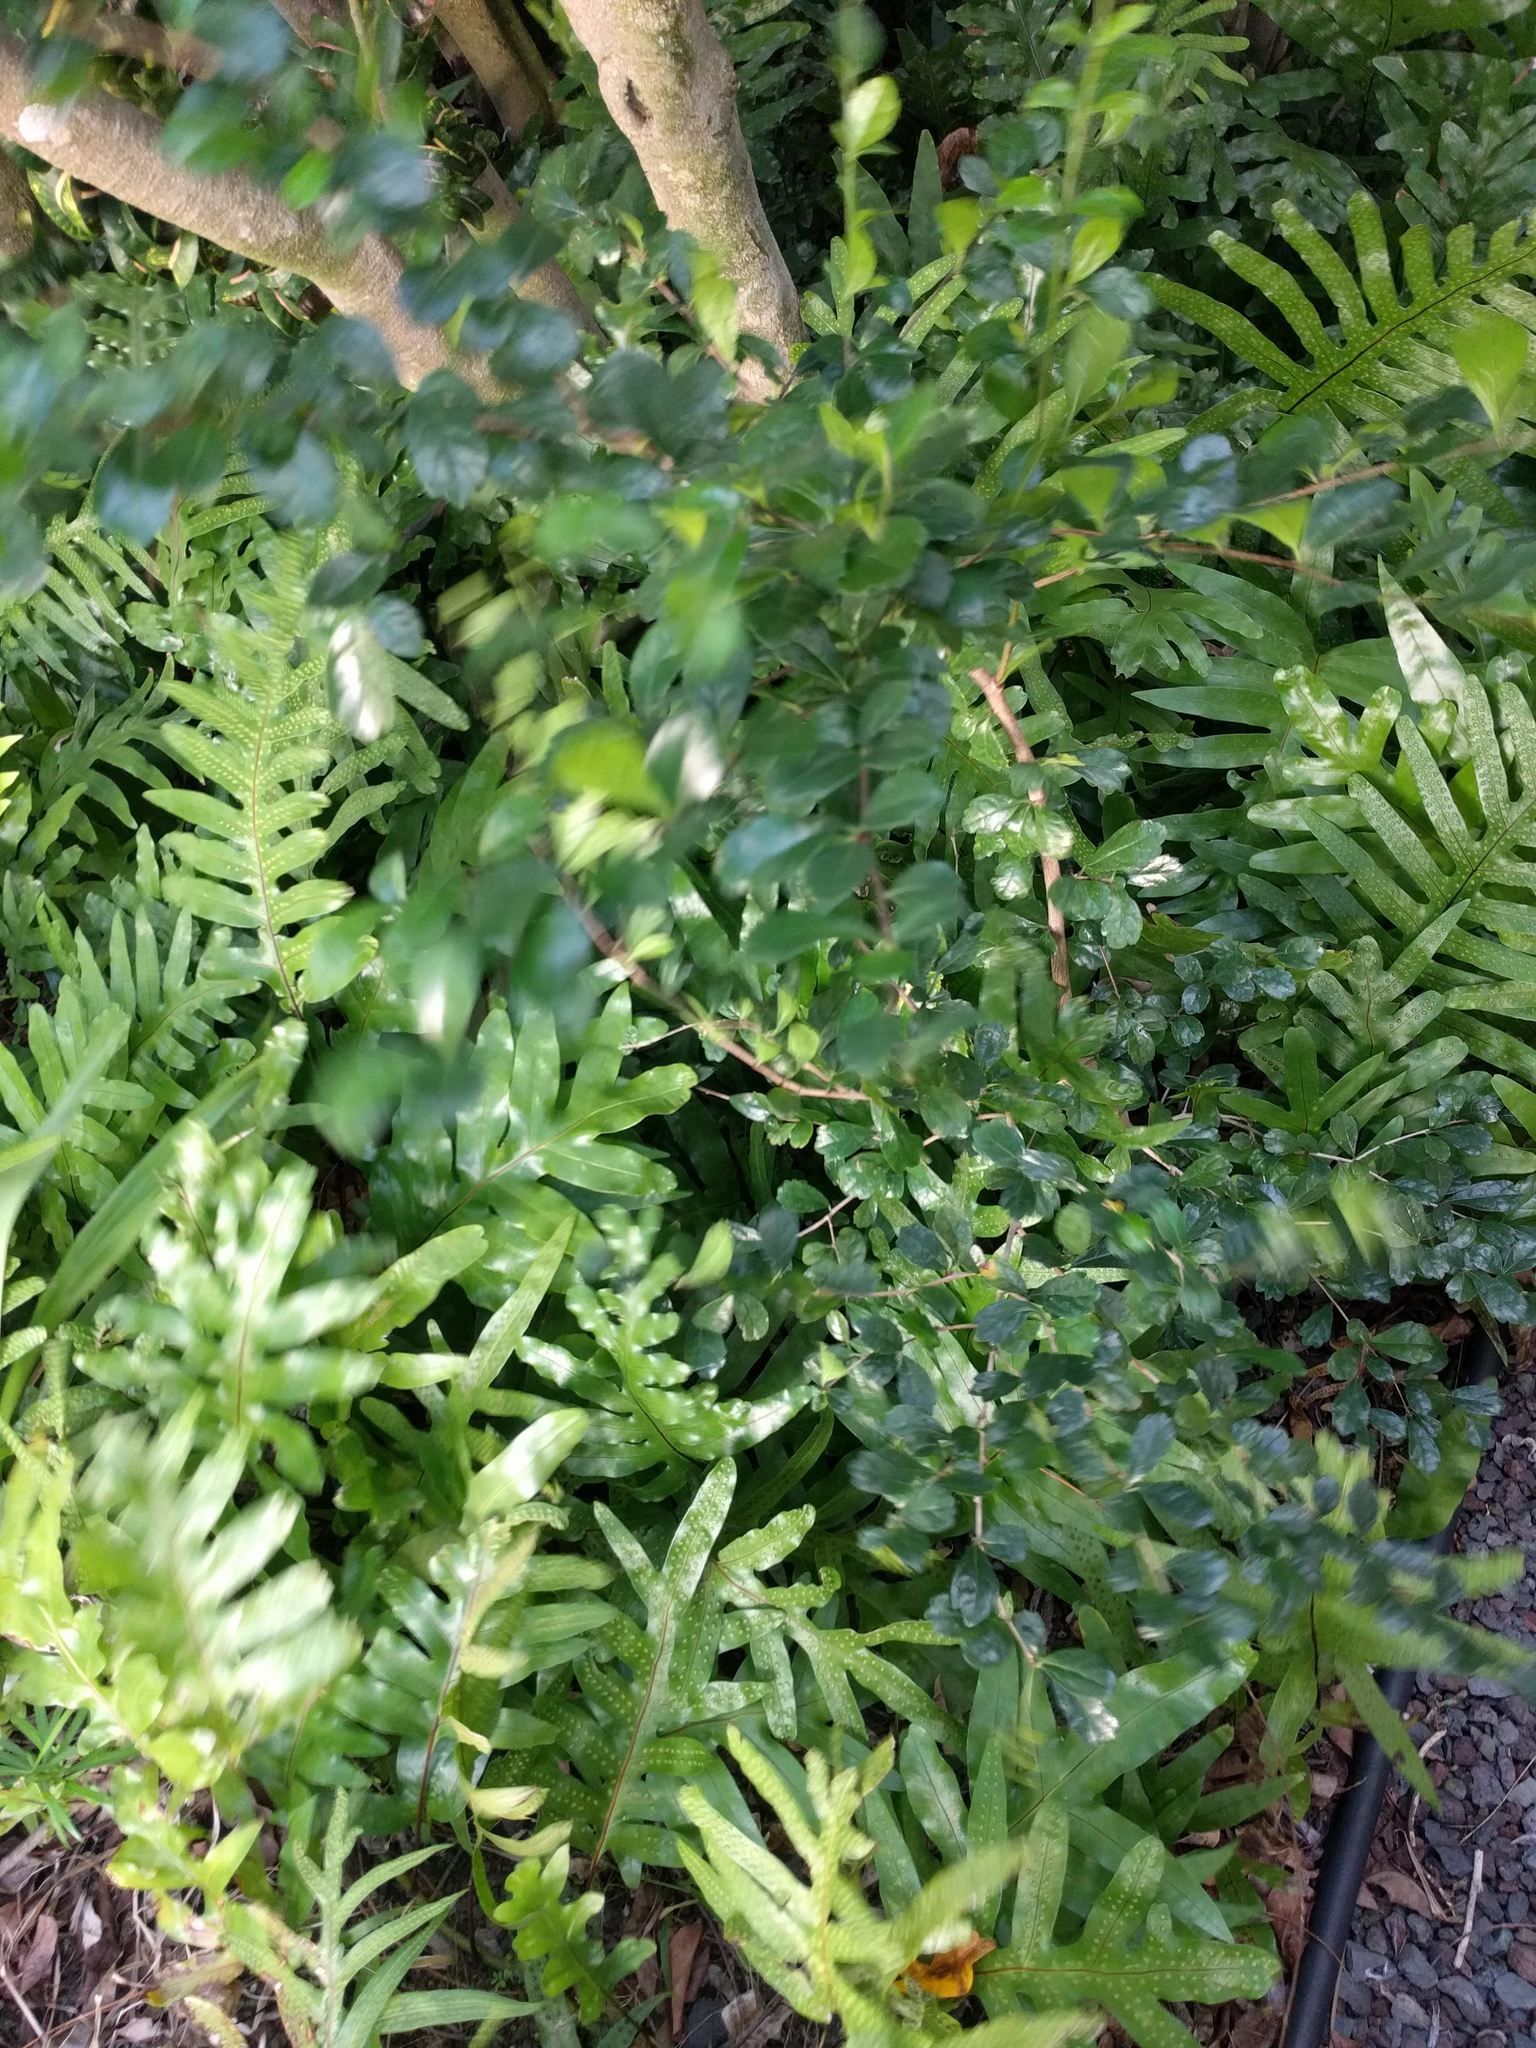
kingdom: Plantae
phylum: Tracheophyta
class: Magnoliopsida
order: Boraginales
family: Ehretiaceae
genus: Ehretia
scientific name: Ehretia microphylla
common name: Fukien-tea
